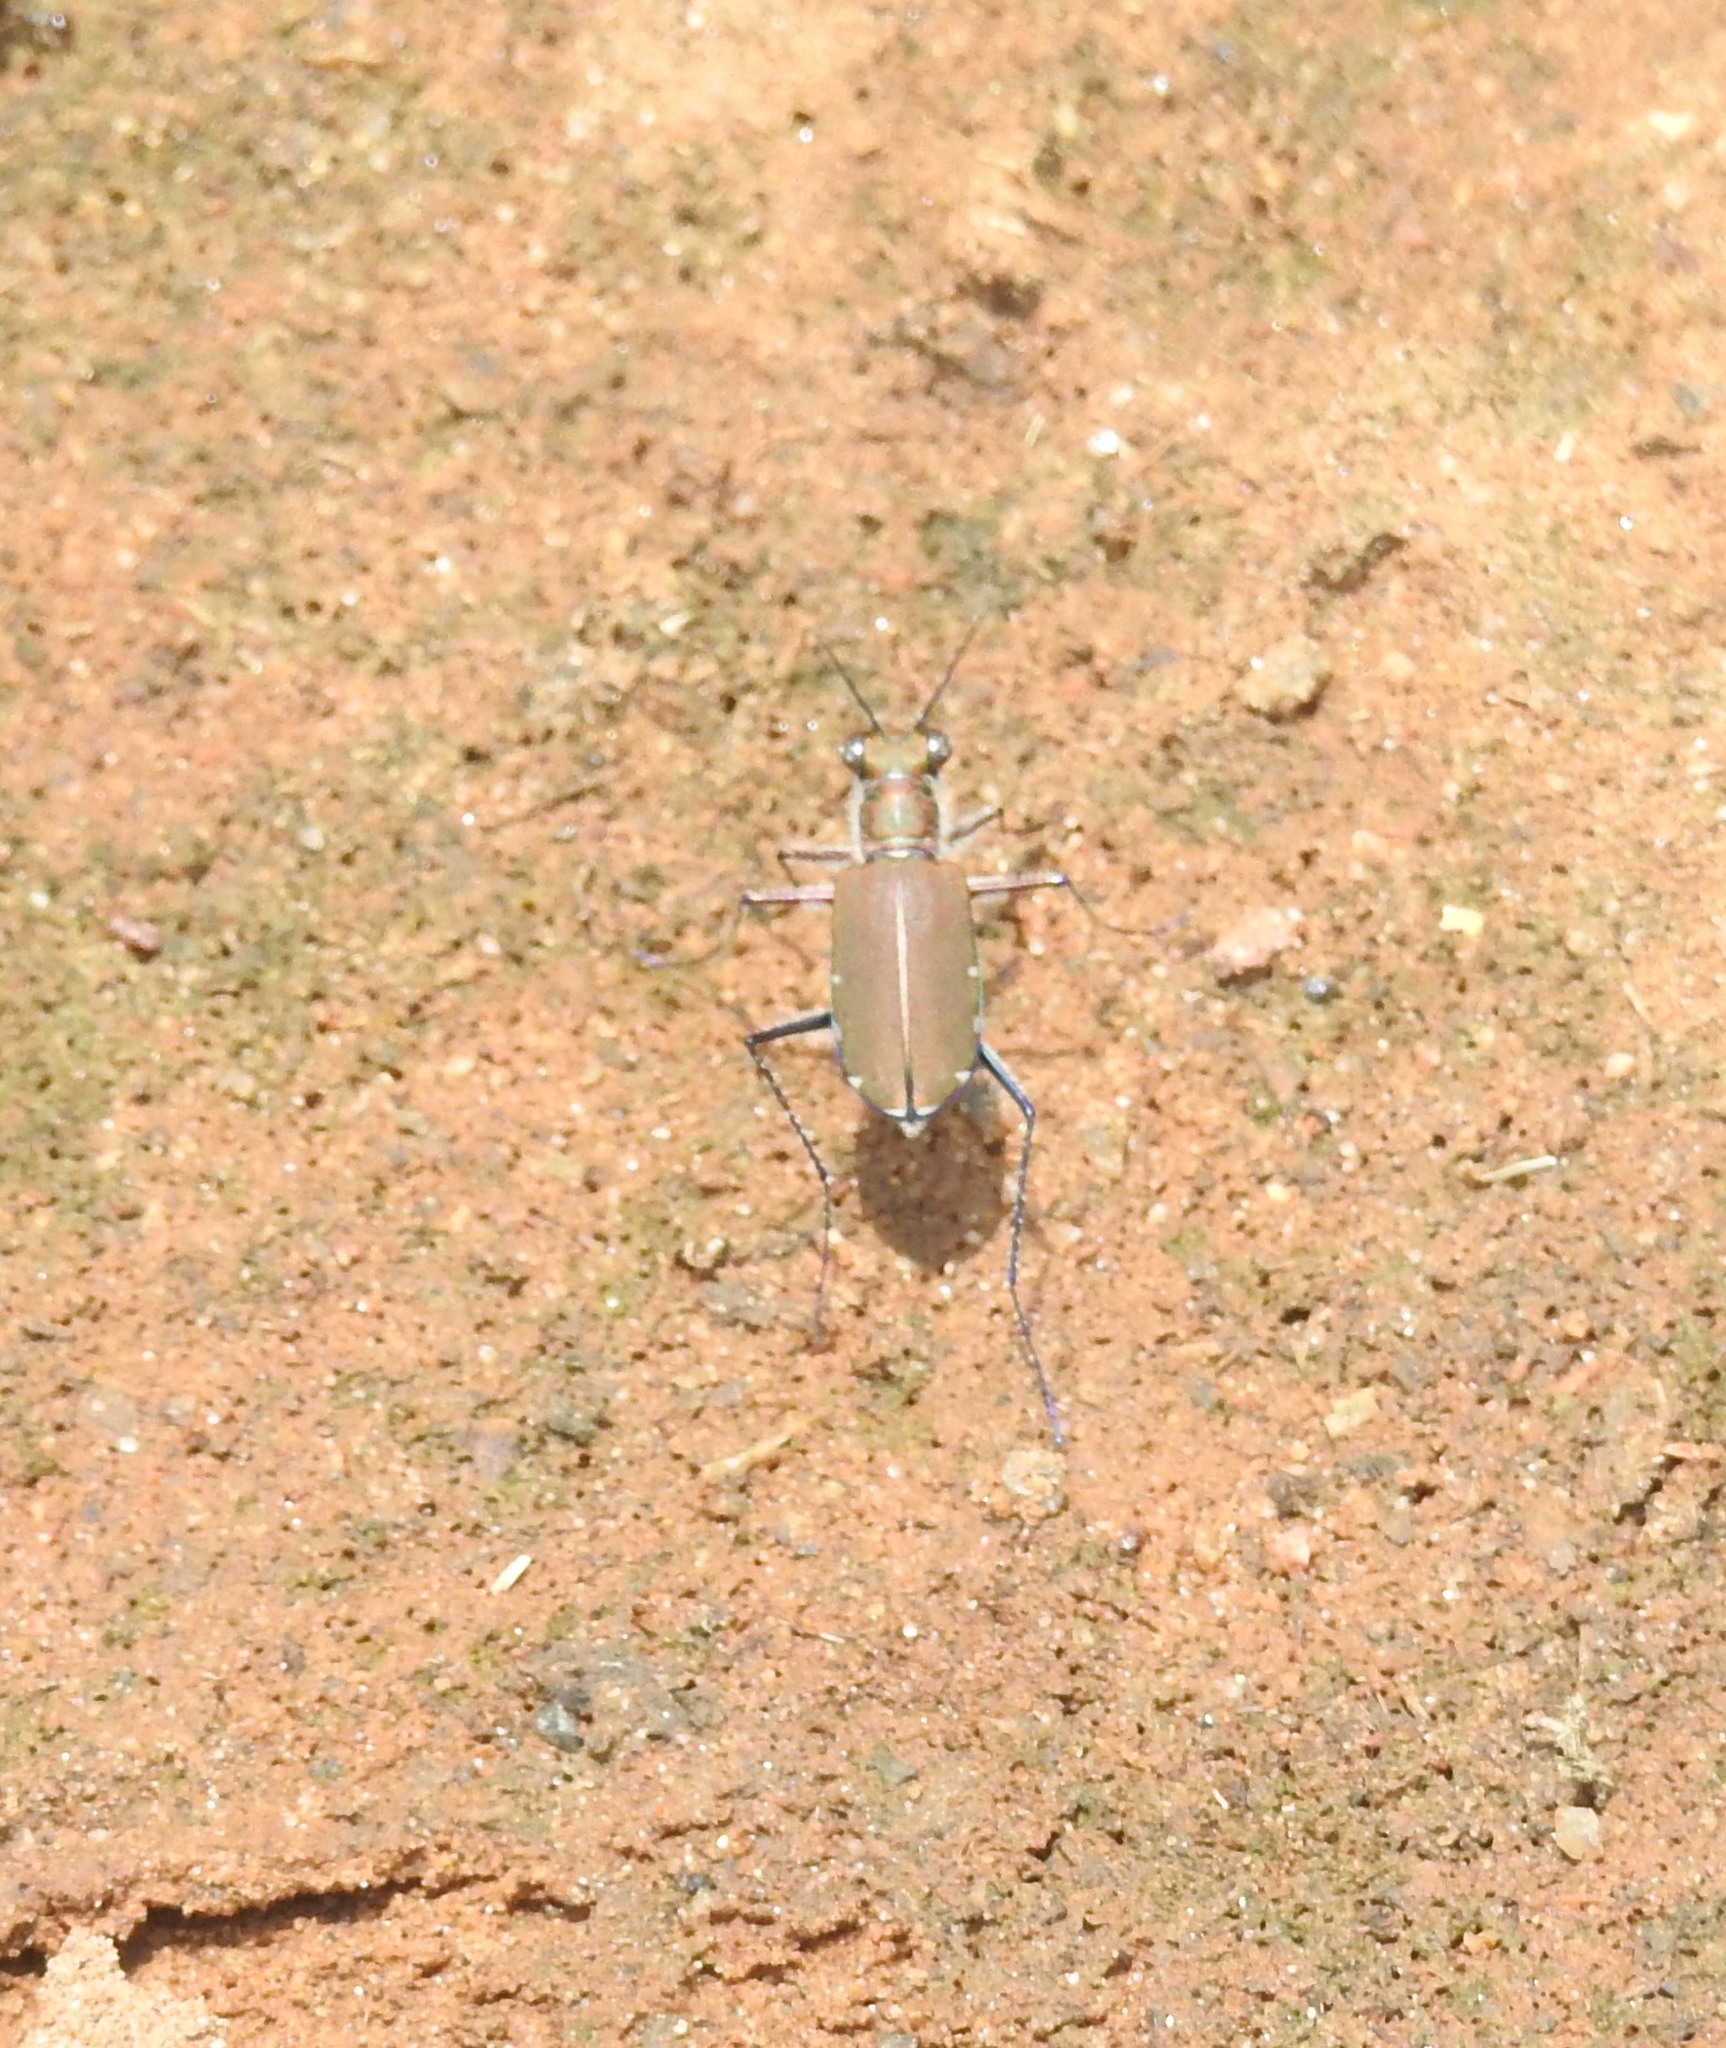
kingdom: Animalia
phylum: Arthropoda
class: Insecta
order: Coleoptera
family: Carabidae
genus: Cicindela
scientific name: Cicindela funerea
